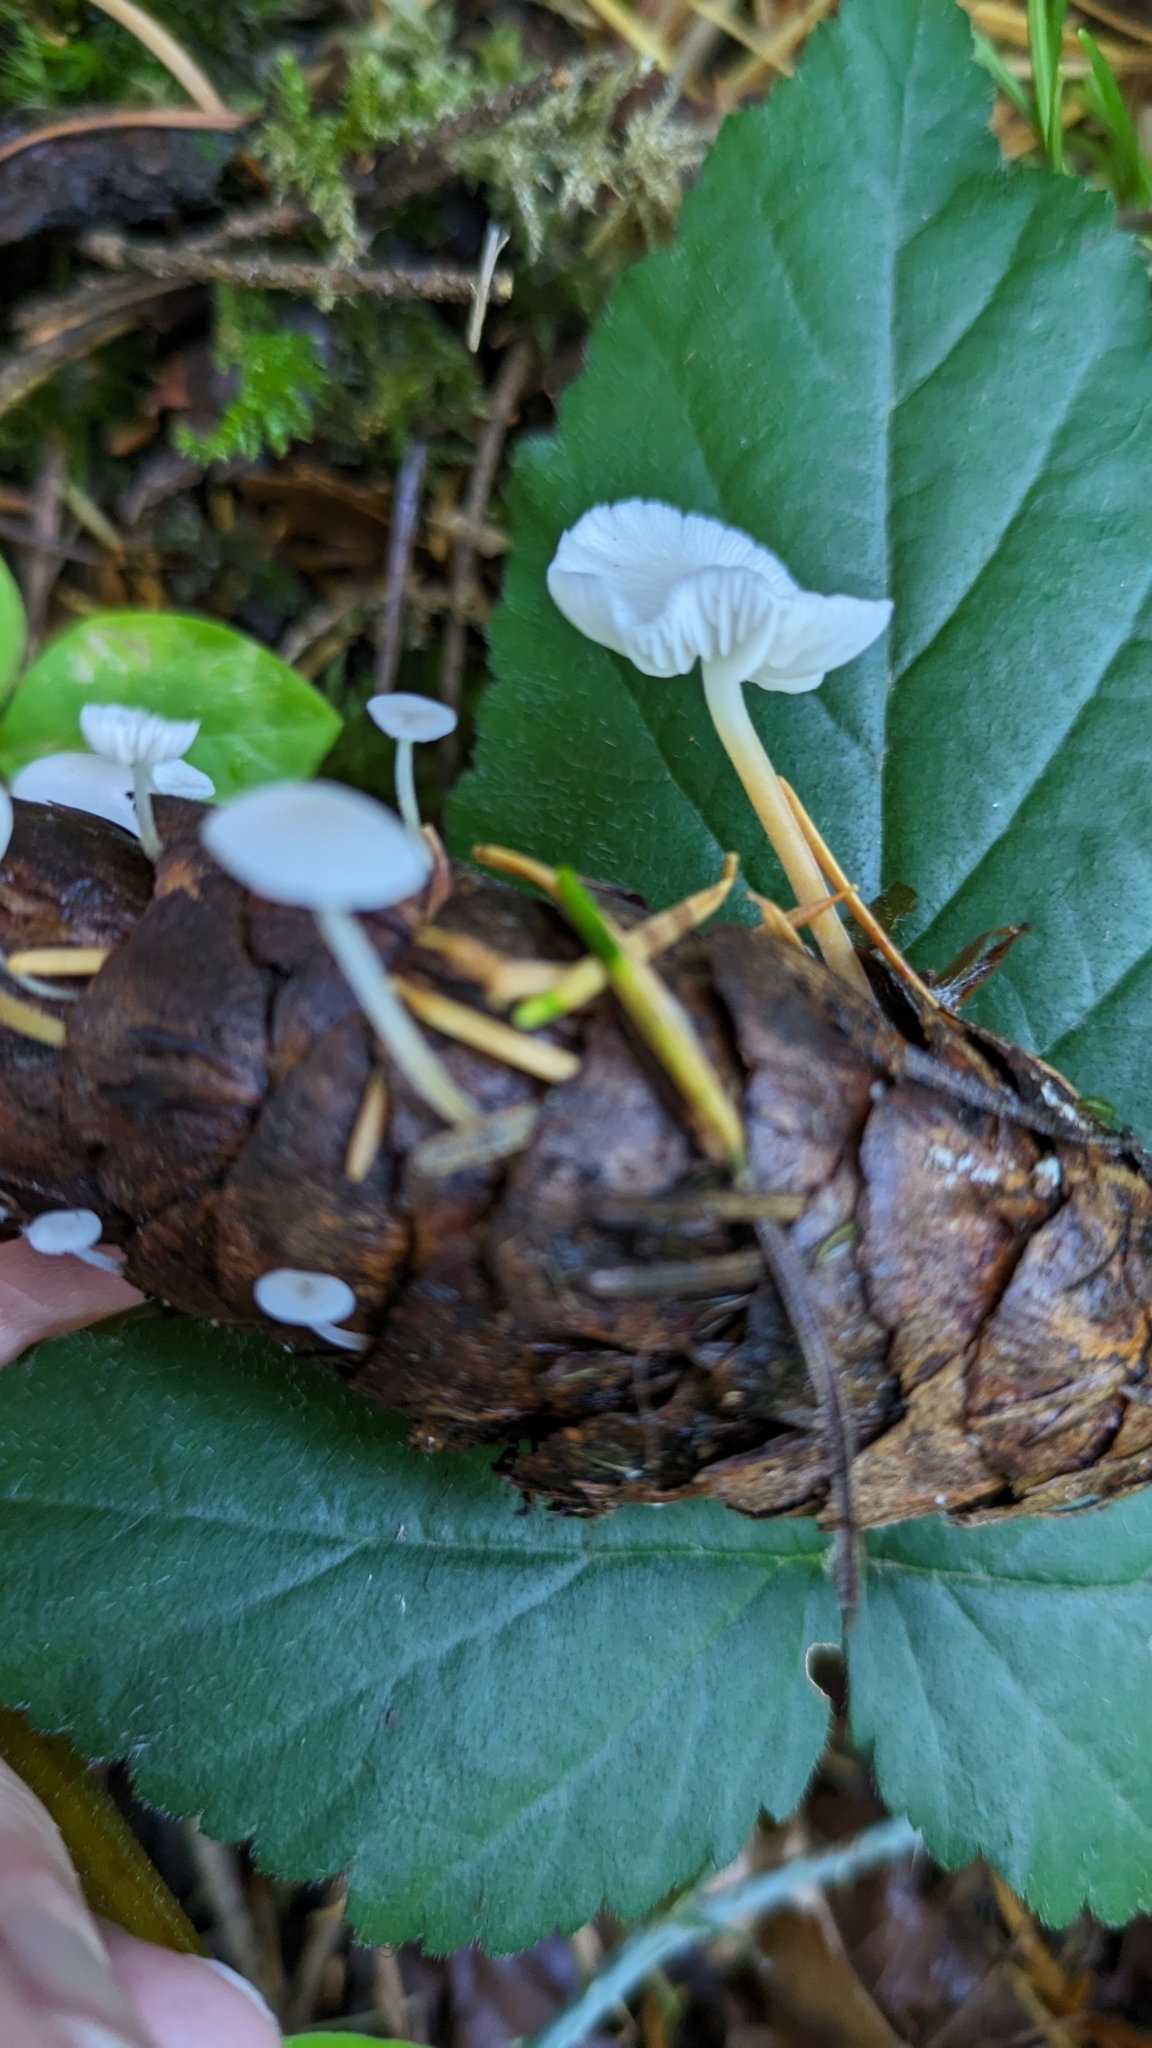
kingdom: Fungi
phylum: Basidiomycota
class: Agaricomycetes
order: Agaricales
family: Physalacriaceae
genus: Strobilurus
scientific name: Strobilurus trullisatus
